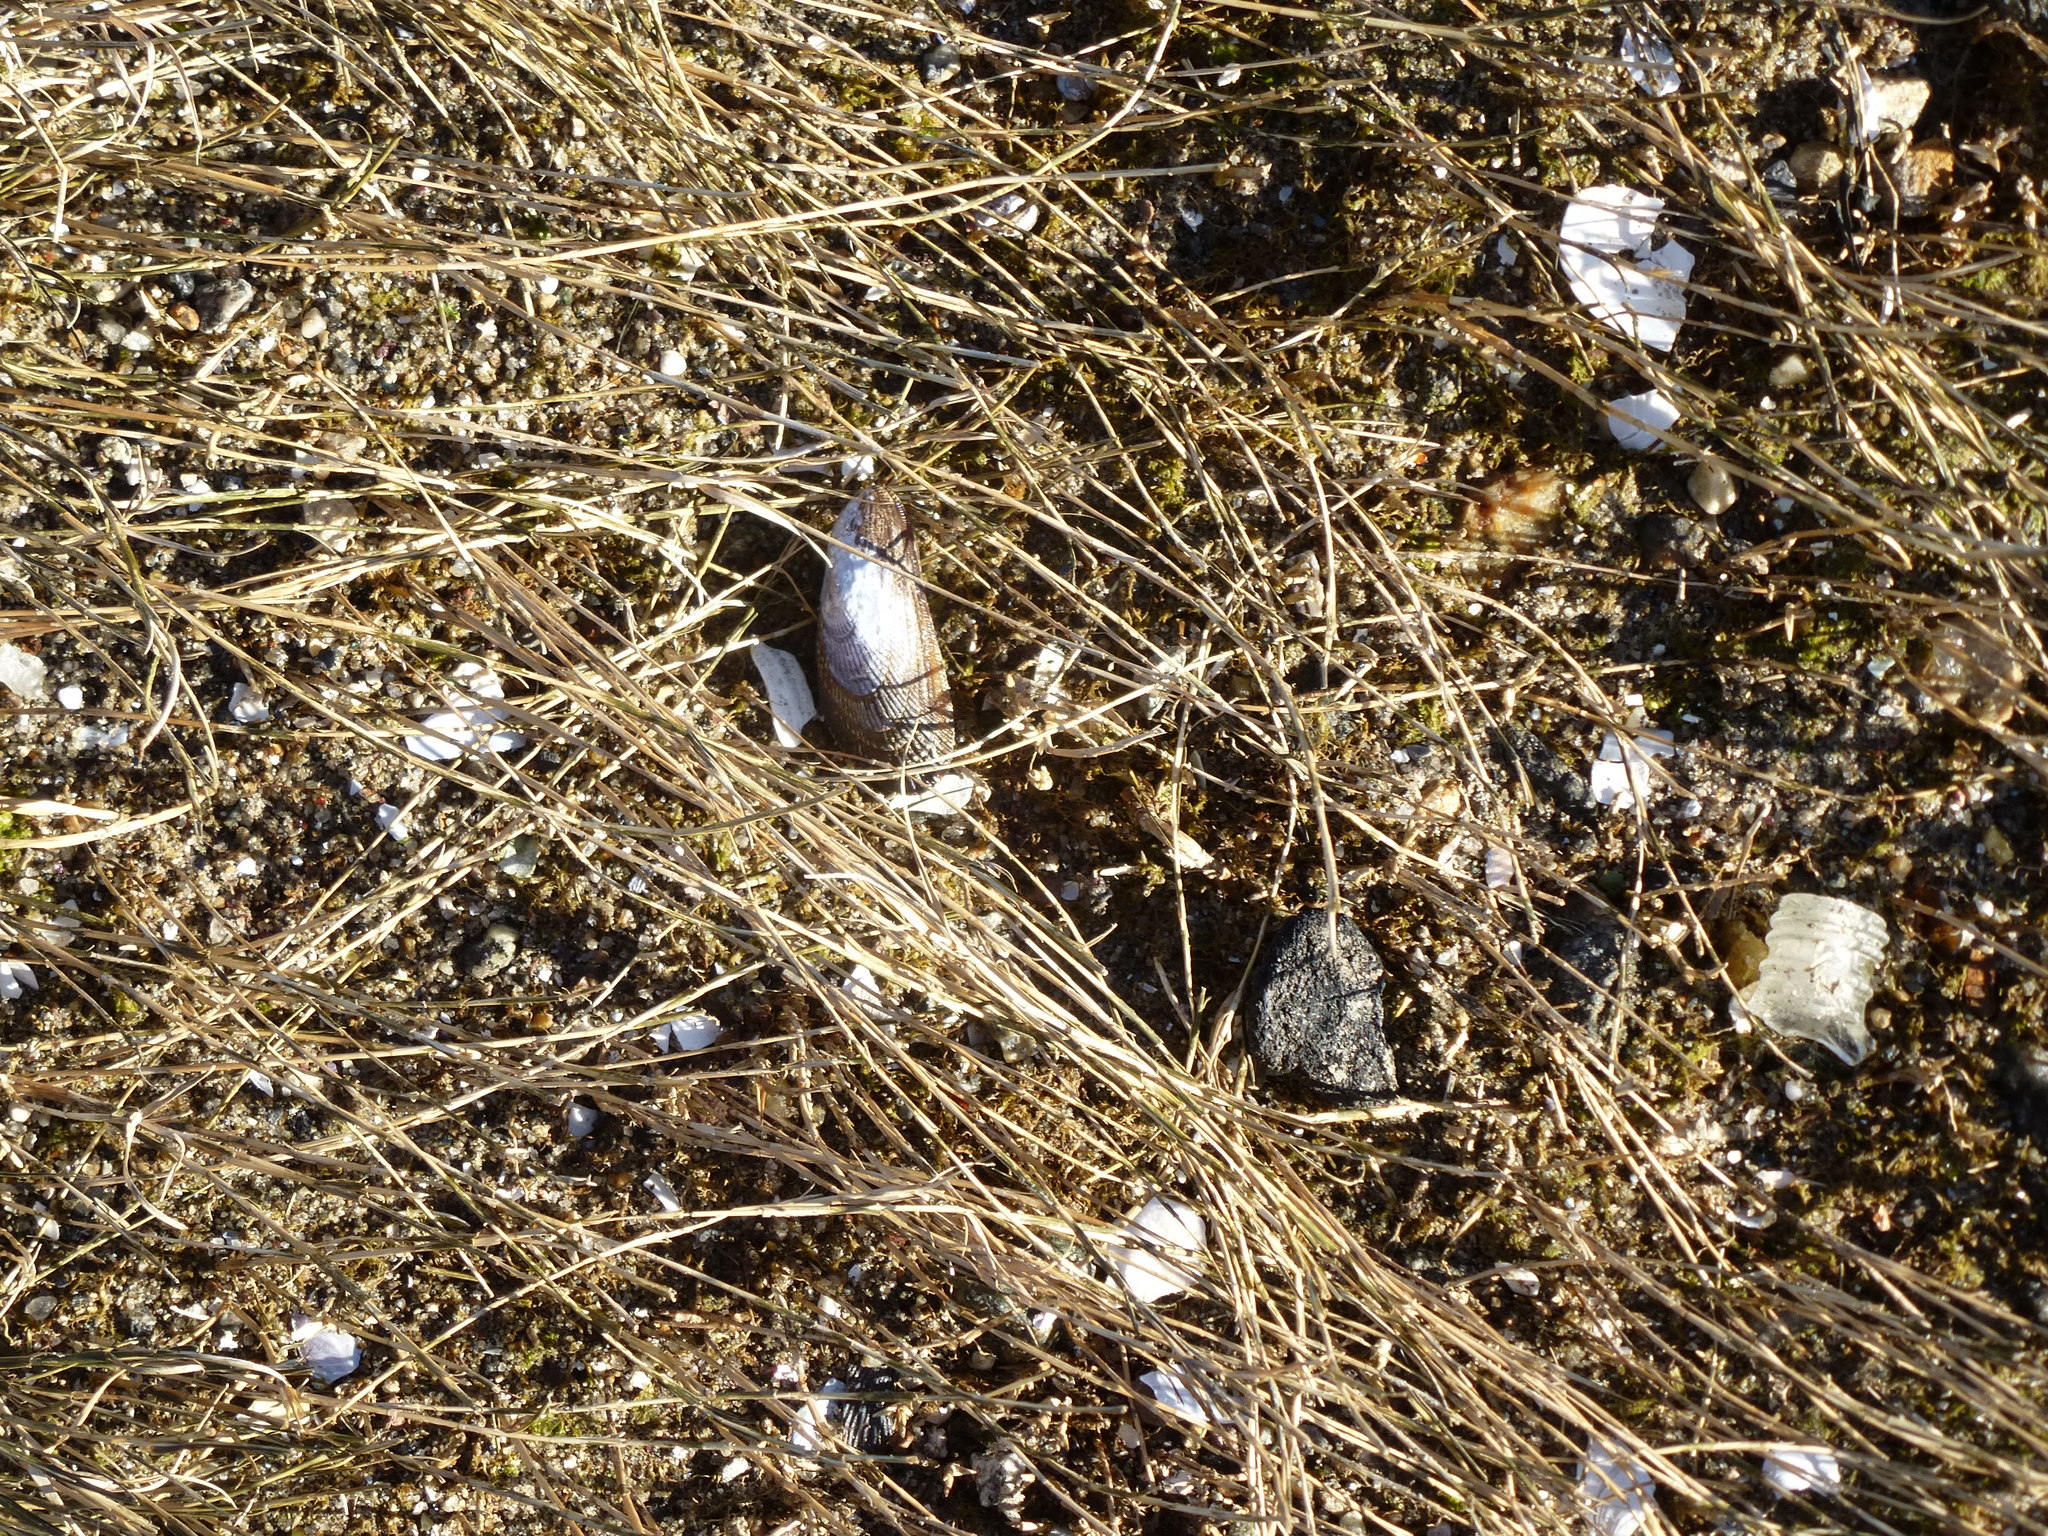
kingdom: Animalia
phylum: Mollusca
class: Bivalvia
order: Mytilida
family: Mytilidae
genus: Geukensia
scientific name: Geukensia demissa
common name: Ribbed mussel
